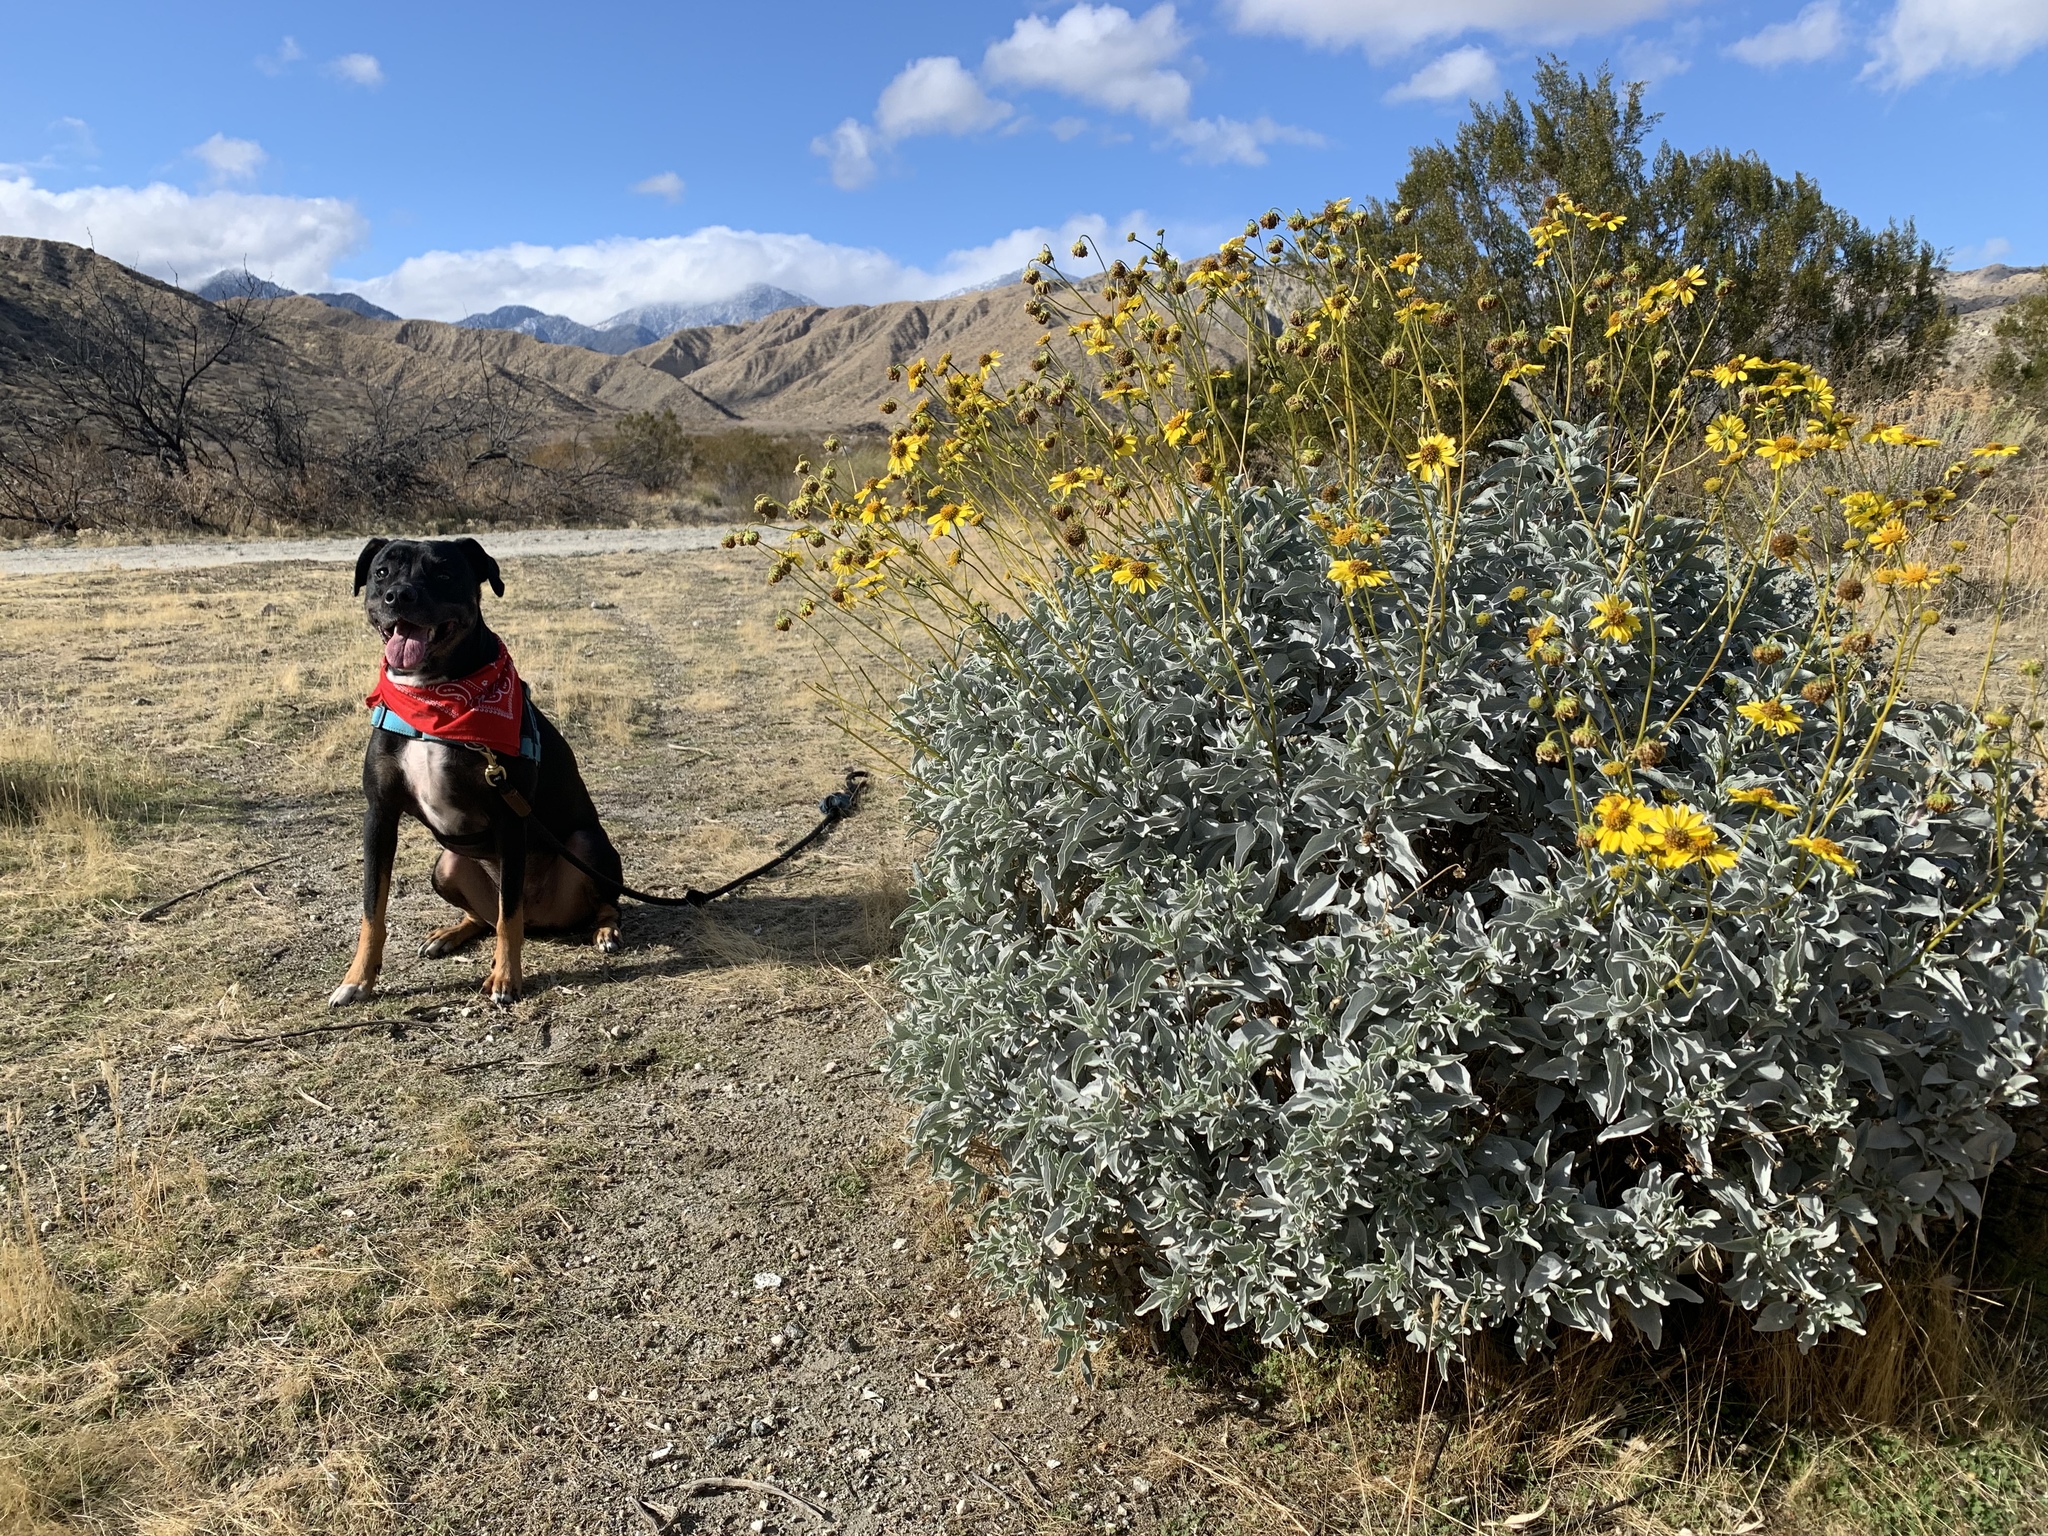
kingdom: Plantae
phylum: Tracheophyta
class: Magnoliopsida
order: Asterales
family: Asteraceae
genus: Encelia
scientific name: Encelia farinosa
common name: Brittlebush
